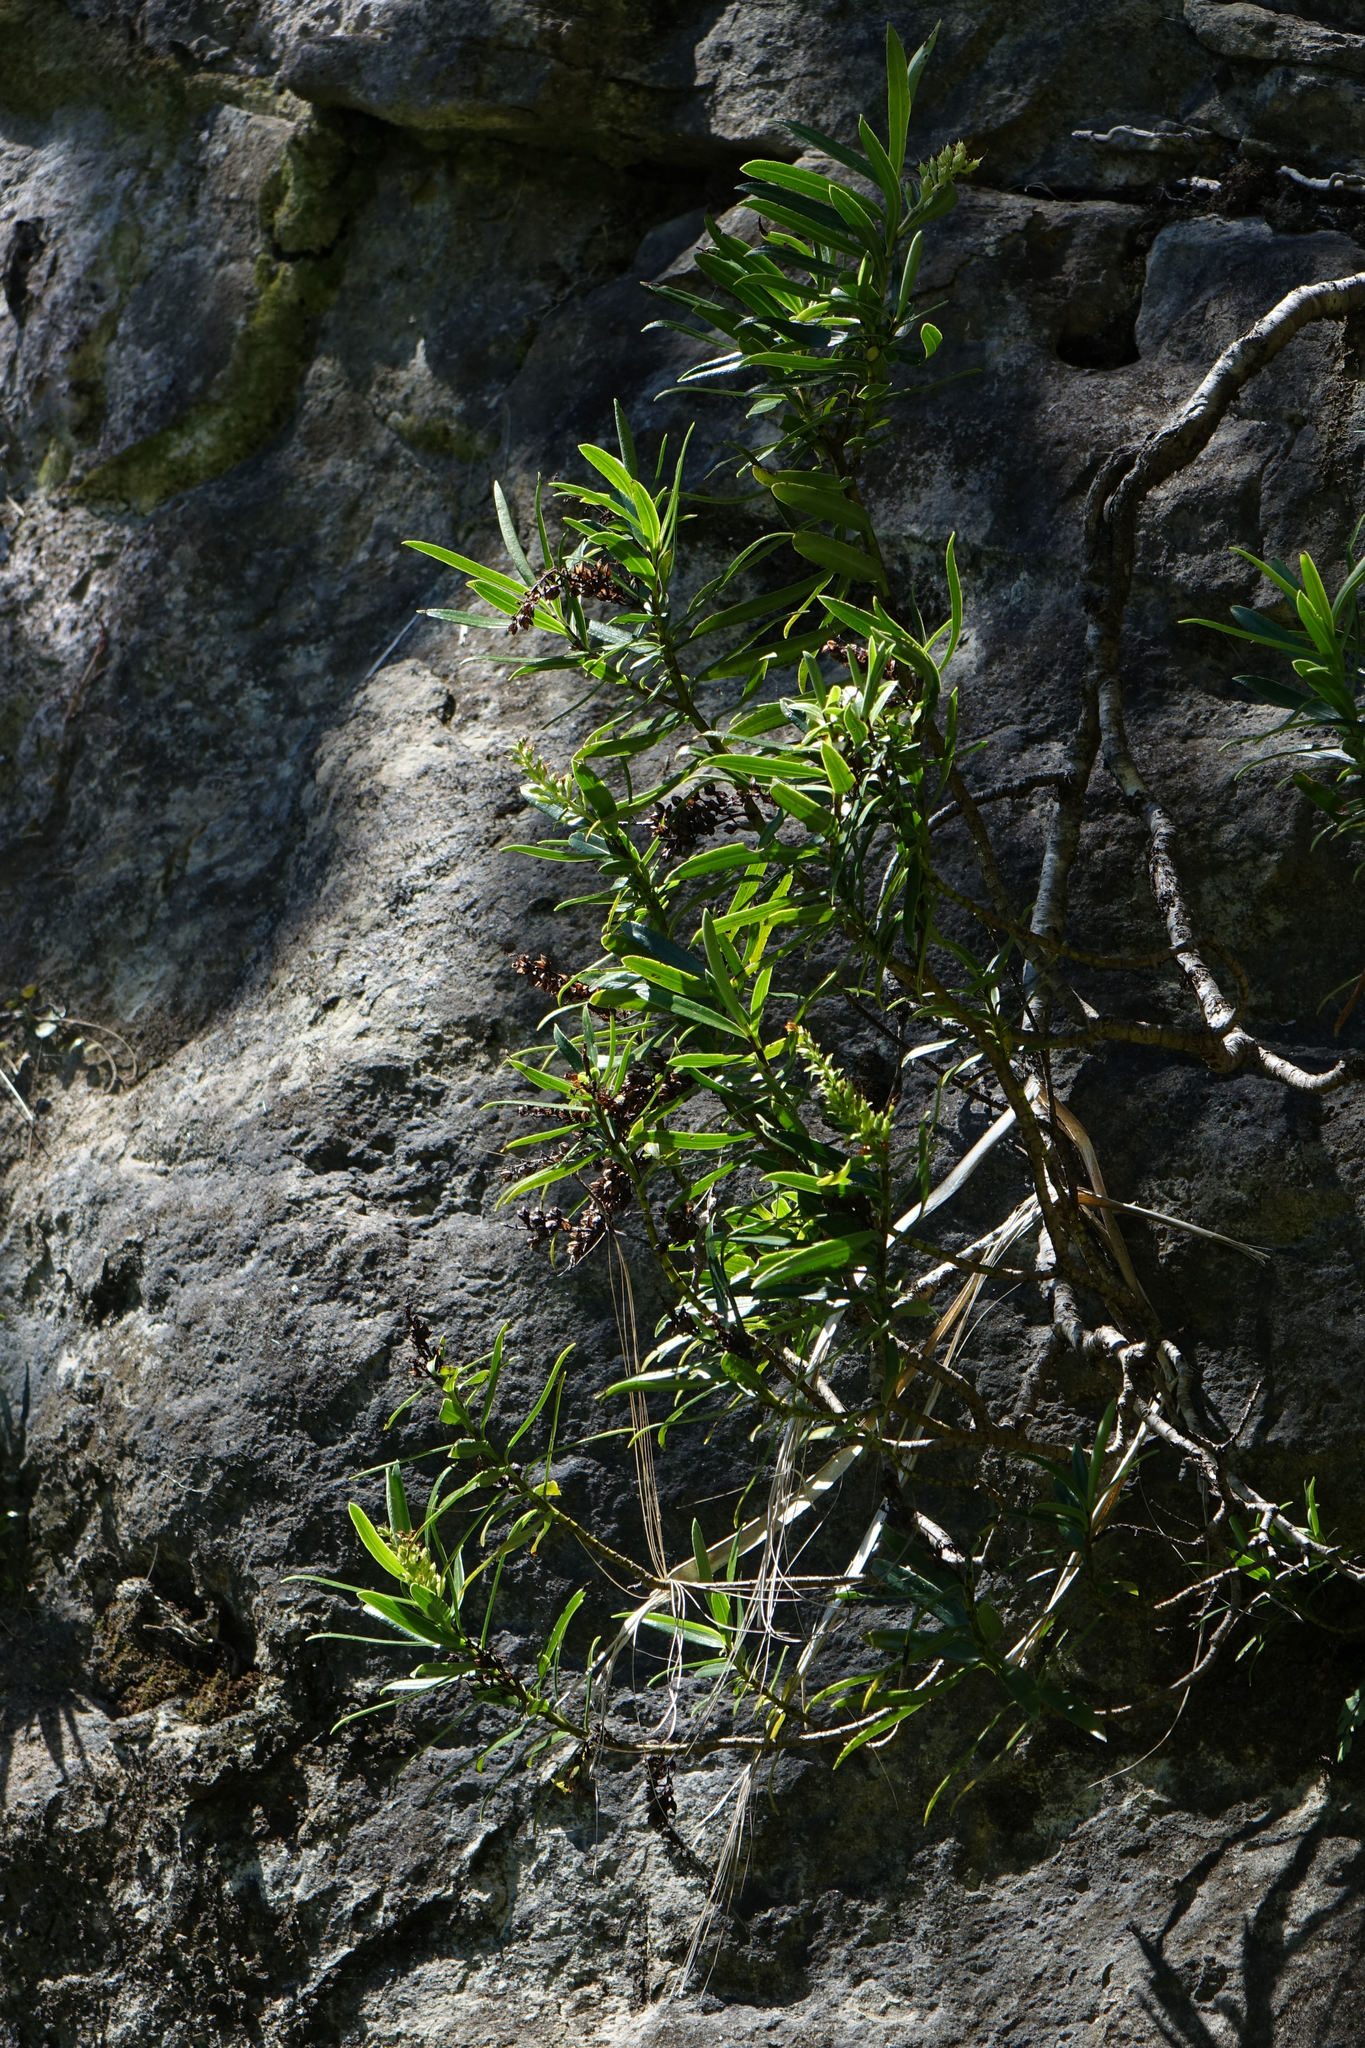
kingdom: Plantae
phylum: Tracheophyta
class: Magnoliopsida
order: Lamiales
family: Plantaginaceae
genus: Veronica
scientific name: Veronica townsonii
